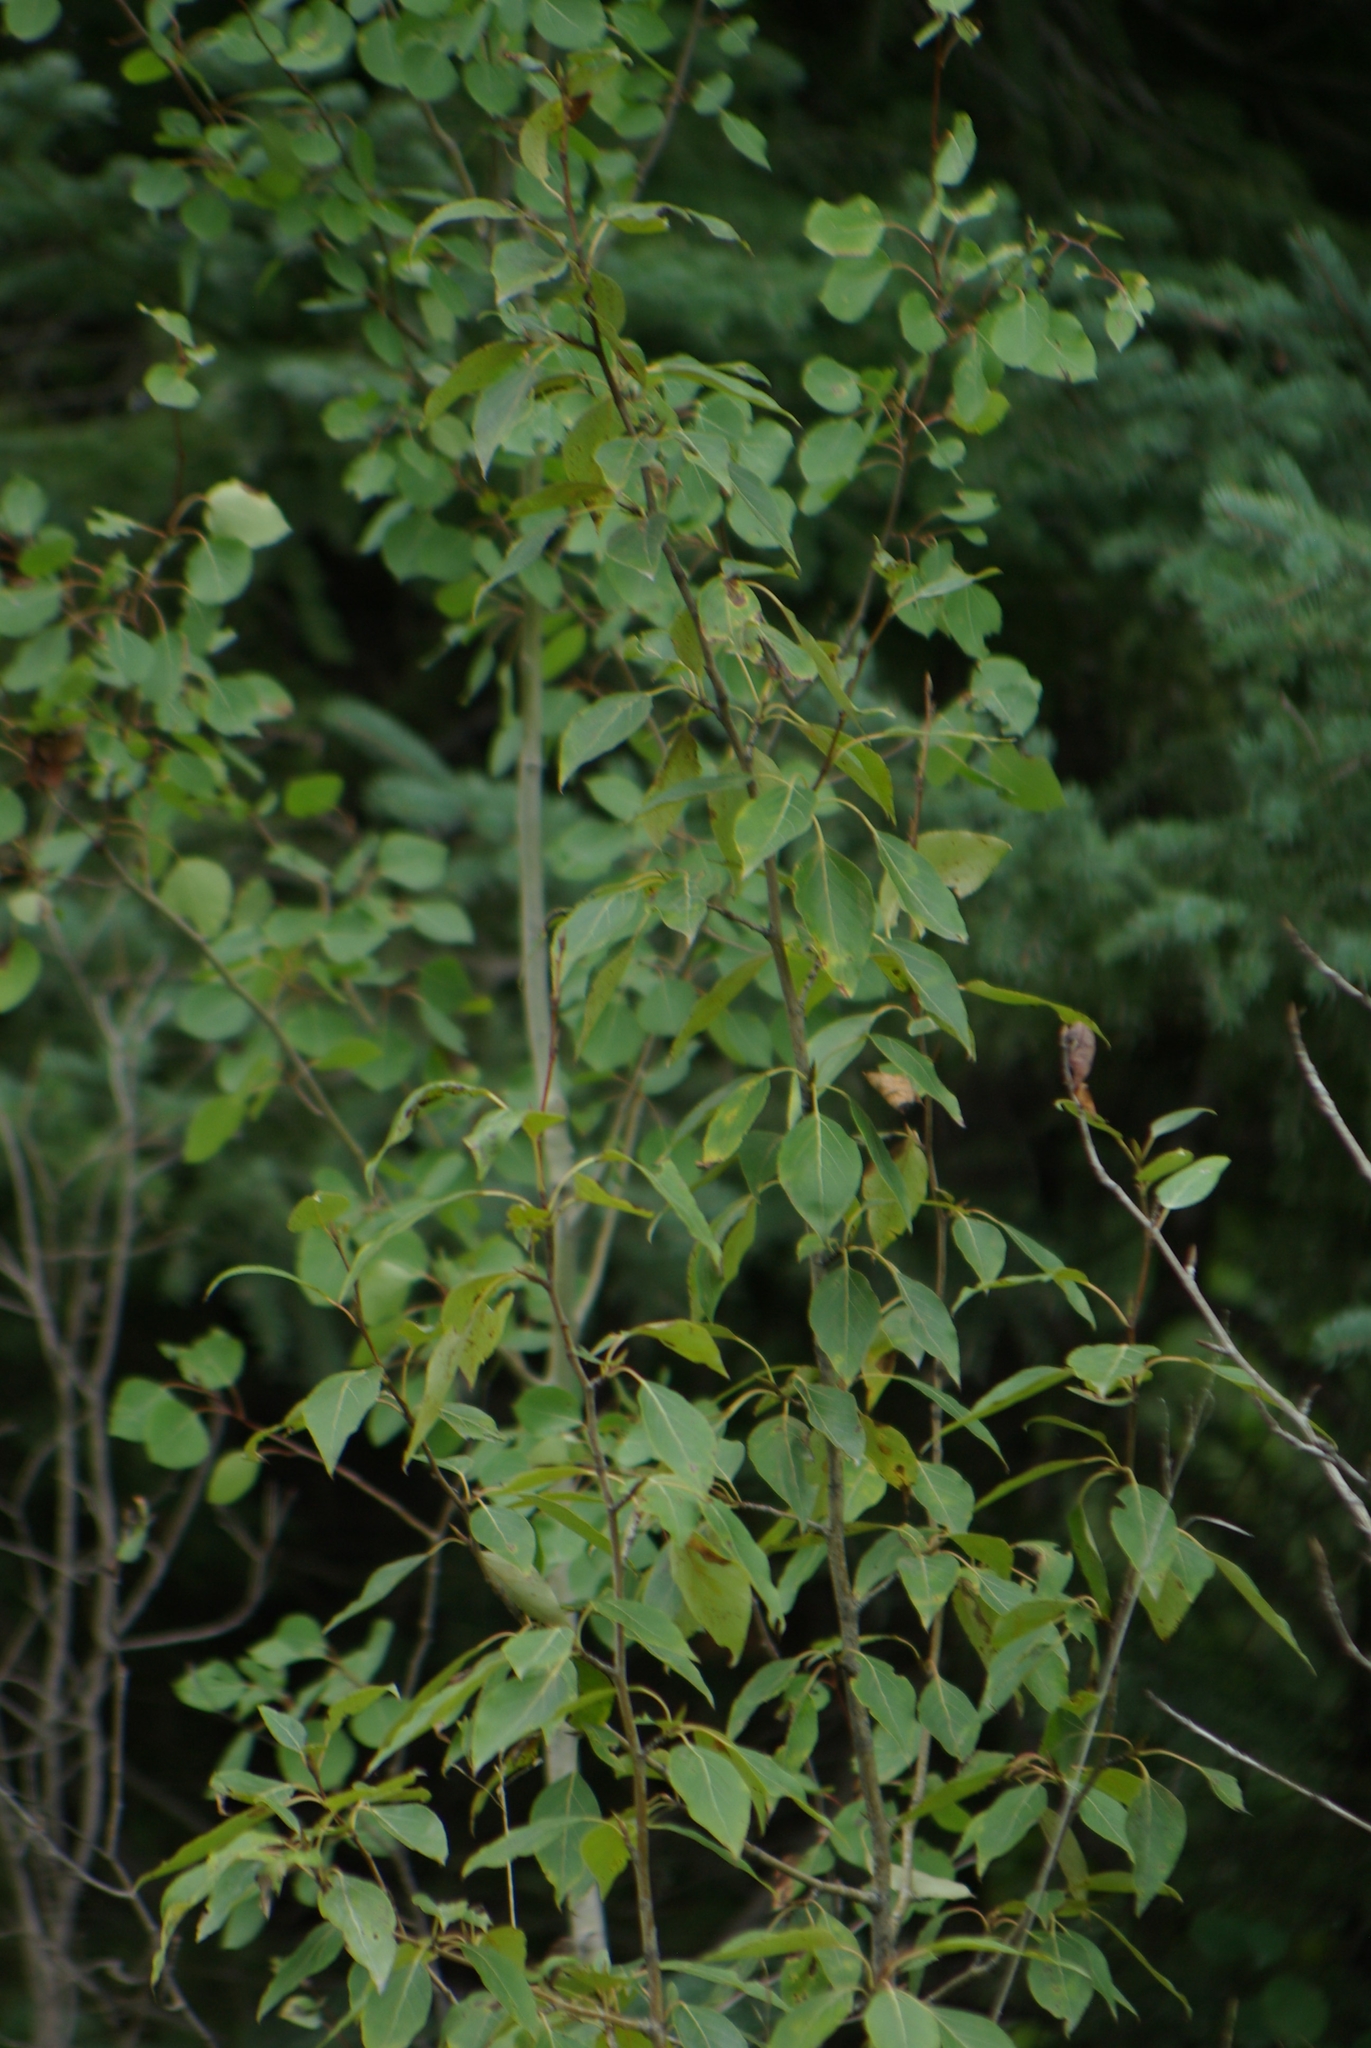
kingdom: Plantae
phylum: Tracheophyta
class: Magnoliopsida
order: Malpighiales
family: Salicaceae
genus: Populus
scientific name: Populus balsamifera
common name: Balsam poplar
